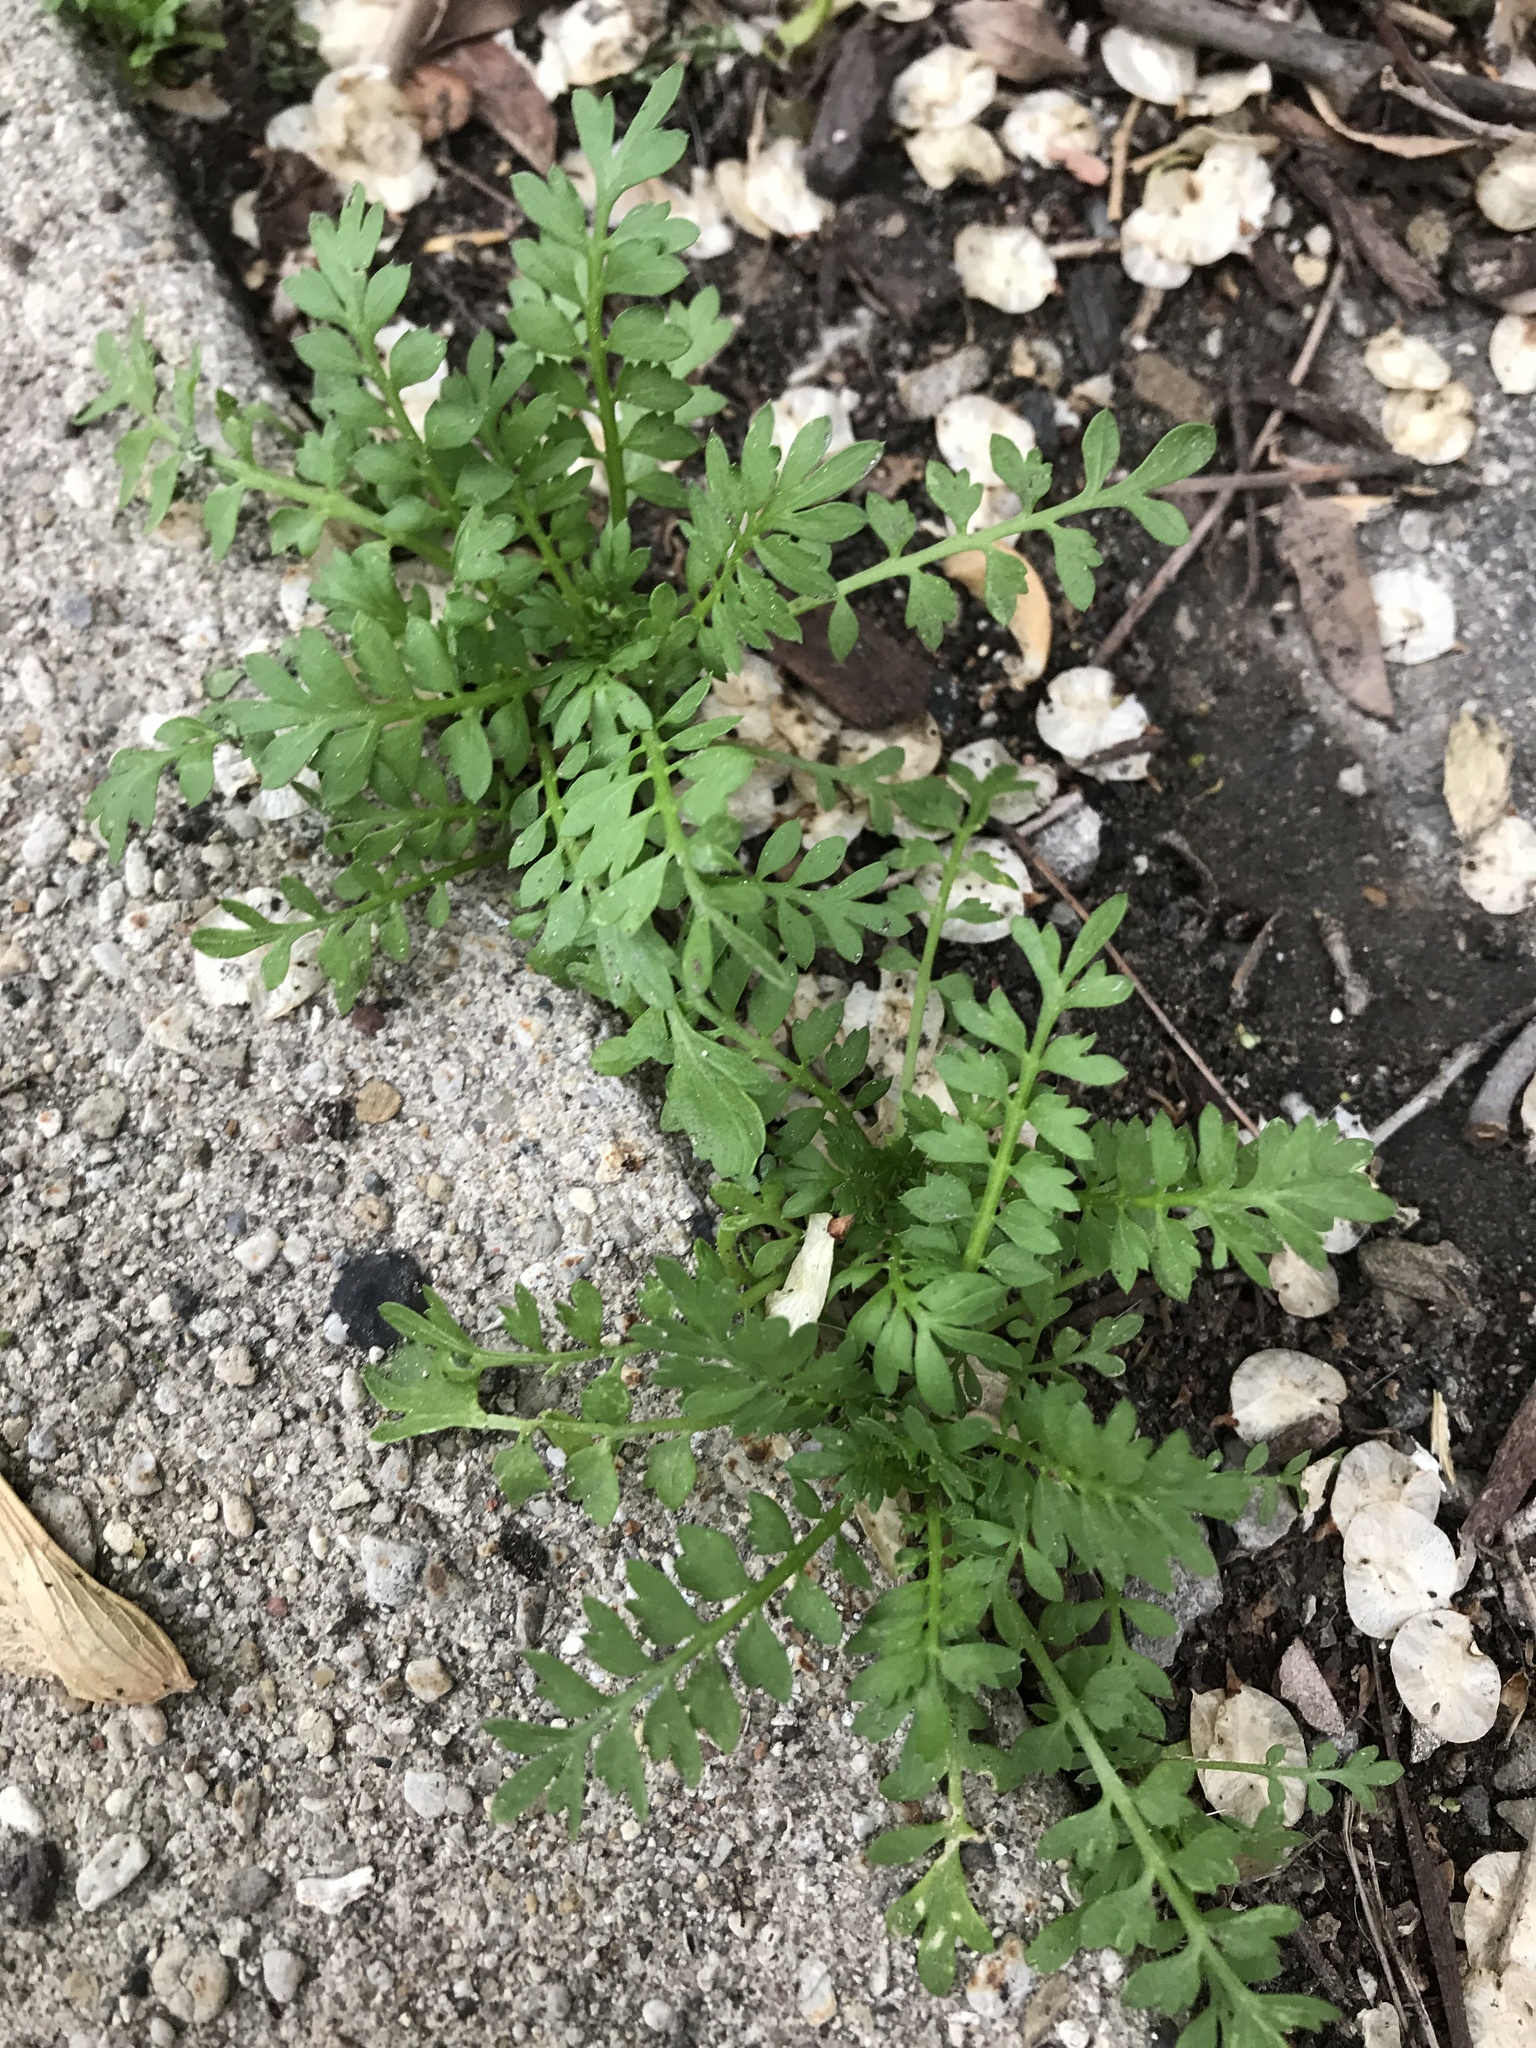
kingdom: Plantae
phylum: Tracheophyta
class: Magnoliopsida
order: Brassicales
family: Brassicaceae
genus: Lepidium
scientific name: Lepidium didymum
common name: Lesser swinecress
